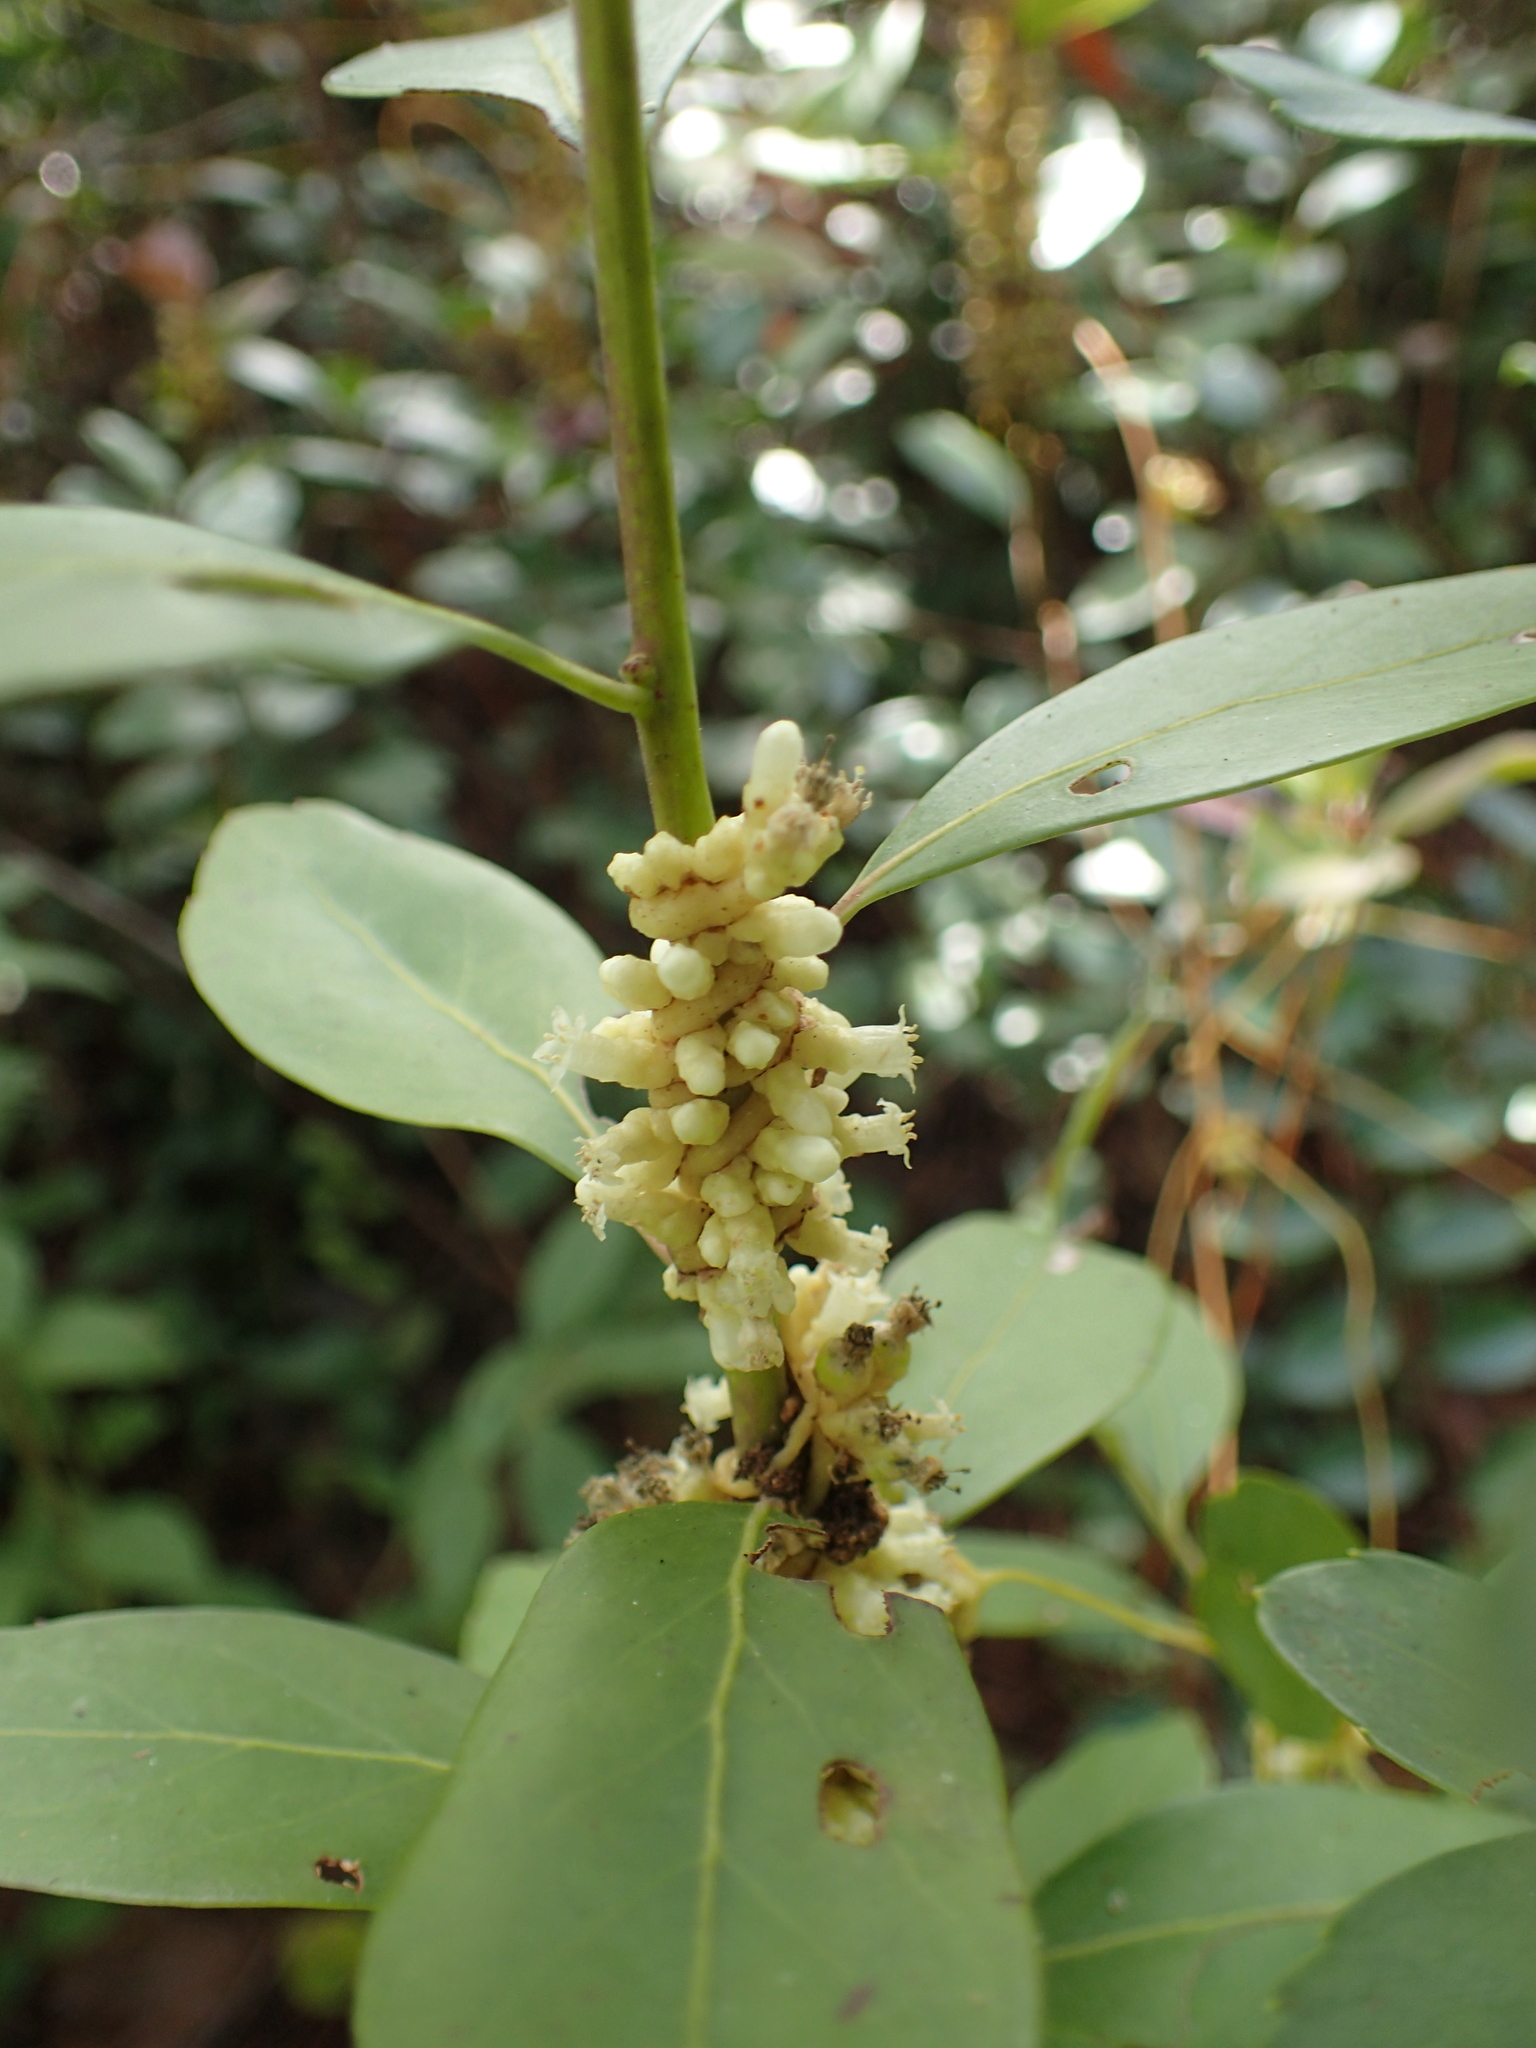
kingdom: Plantae
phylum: Tracheophyta
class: Magnoliopsida
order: Solanales
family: Convolvulaceae
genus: Cuscuta
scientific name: Cuscuta compacta
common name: Compact dodder
